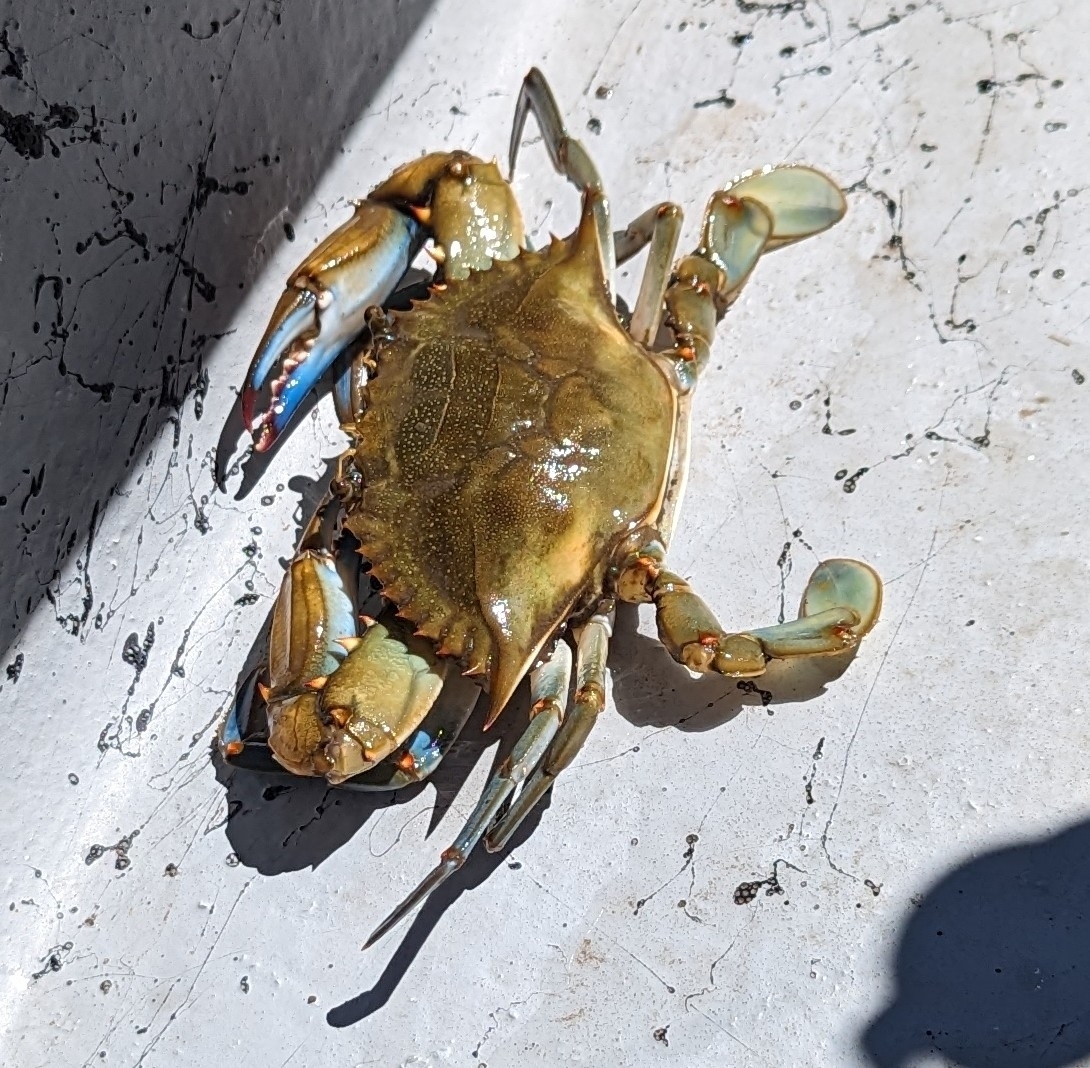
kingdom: Animalia
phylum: Arthropoda
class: Malacostraca
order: Decapoda
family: Portunidae
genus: Callinectes
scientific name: Callinectes sapidus
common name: Blue crab
